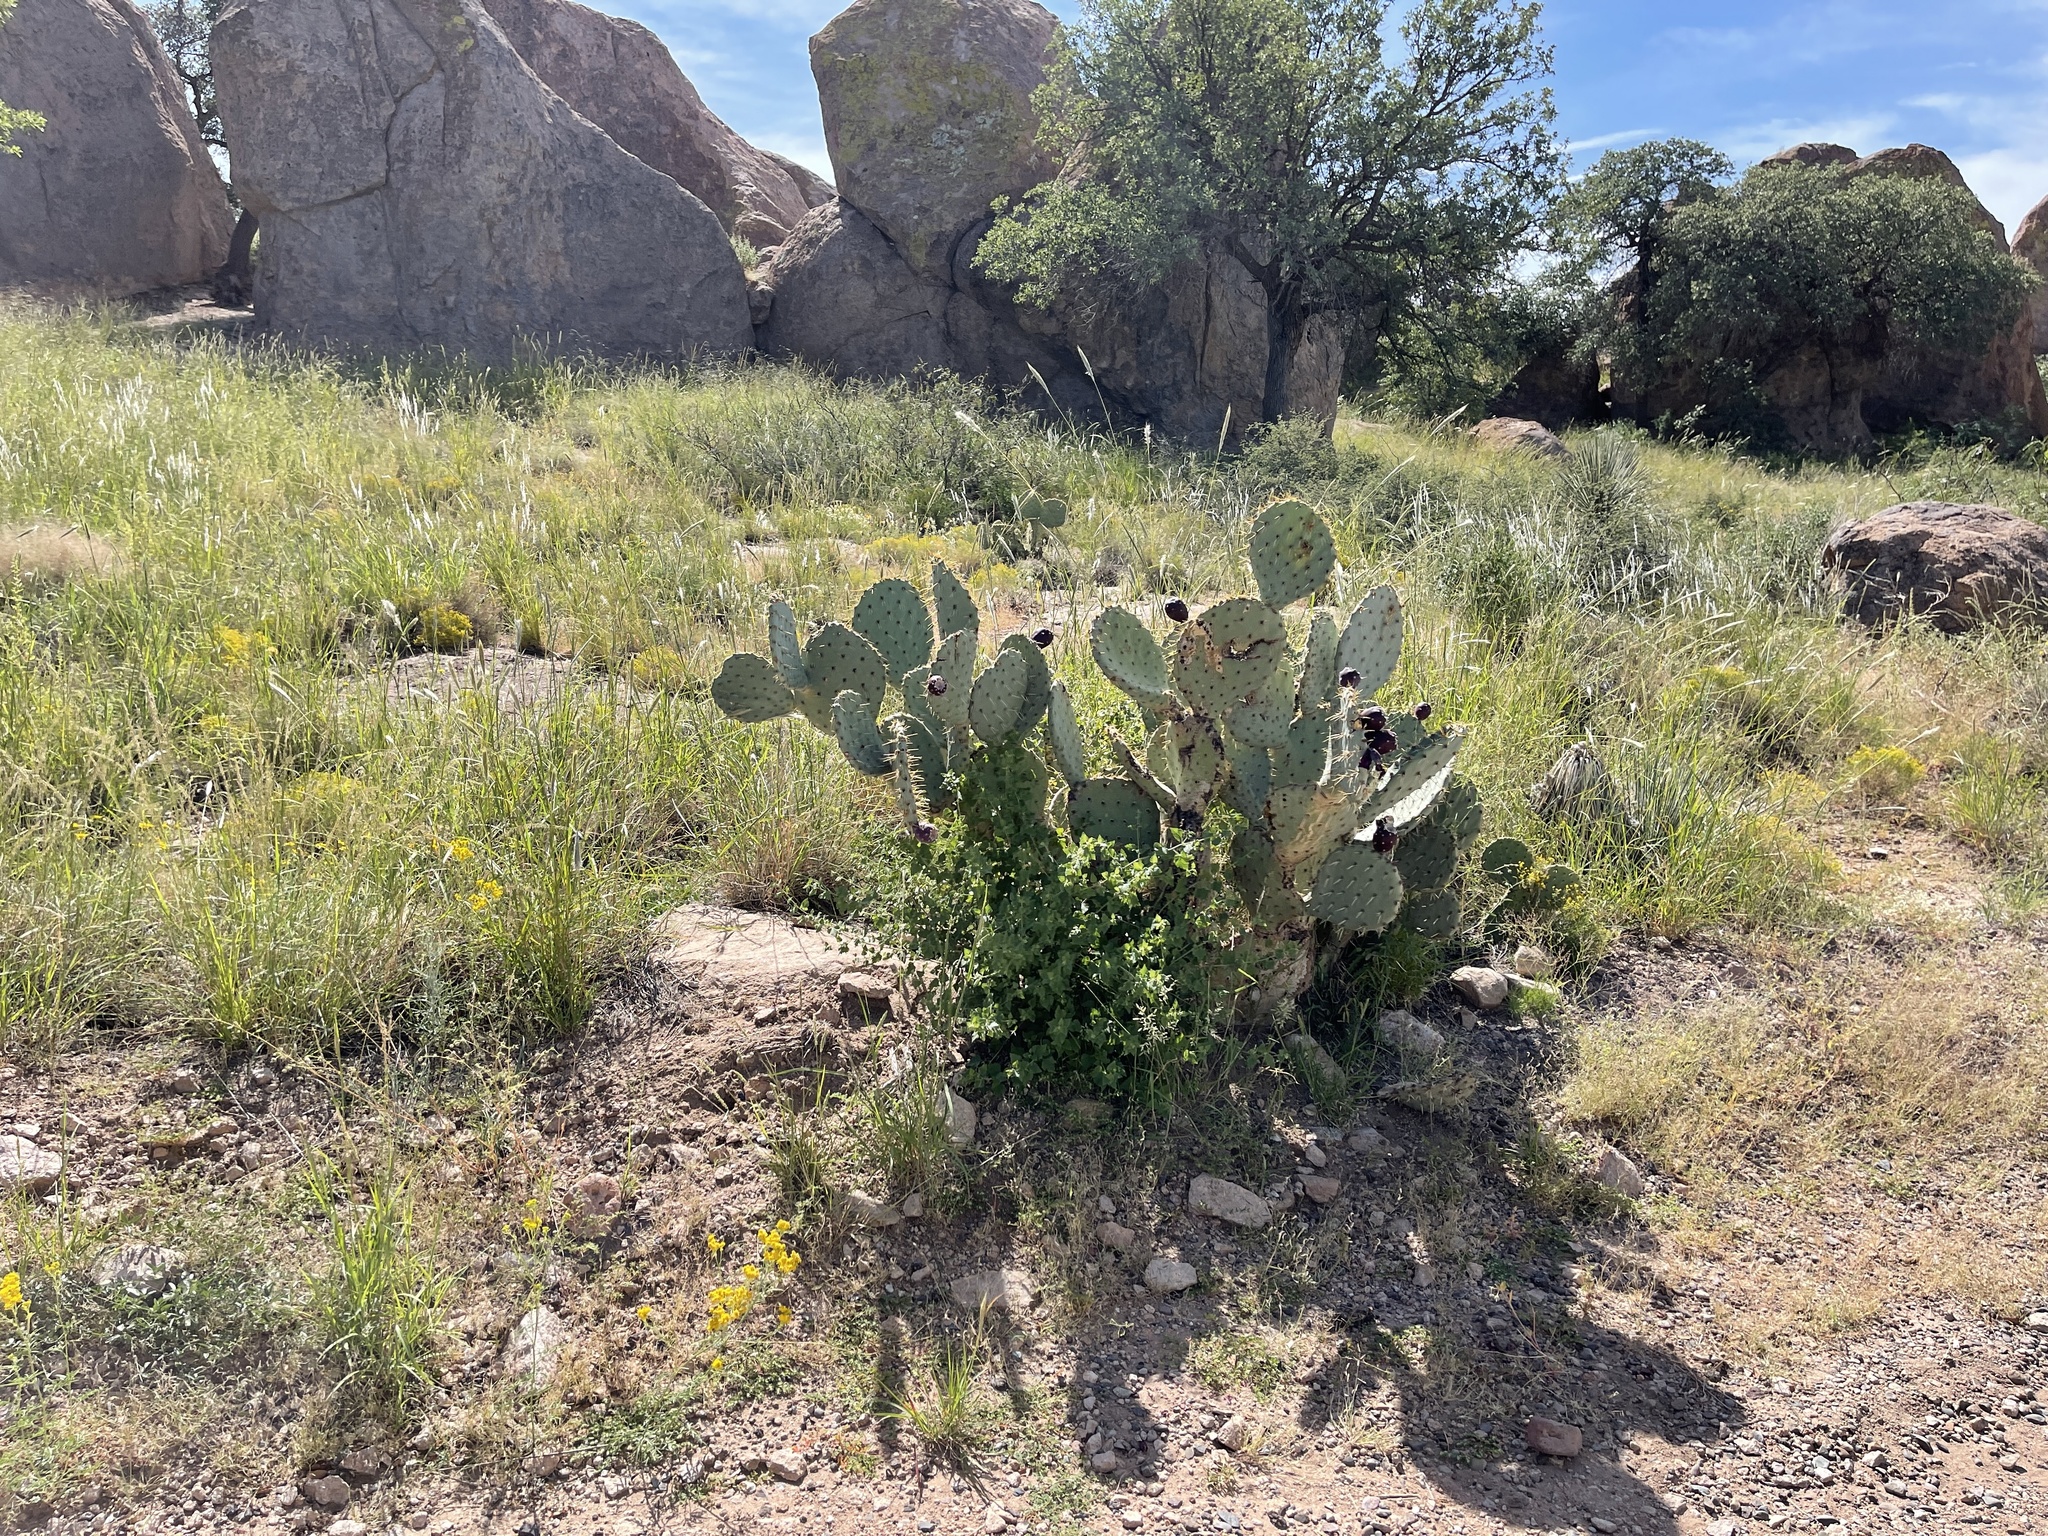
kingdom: Plantae
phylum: Tracheophyta
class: Magnoliopsida
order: Caryophyllales
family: Cactaceae
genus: Opuntia
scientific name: Opuntia engelmannii
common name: Cactus-apple
